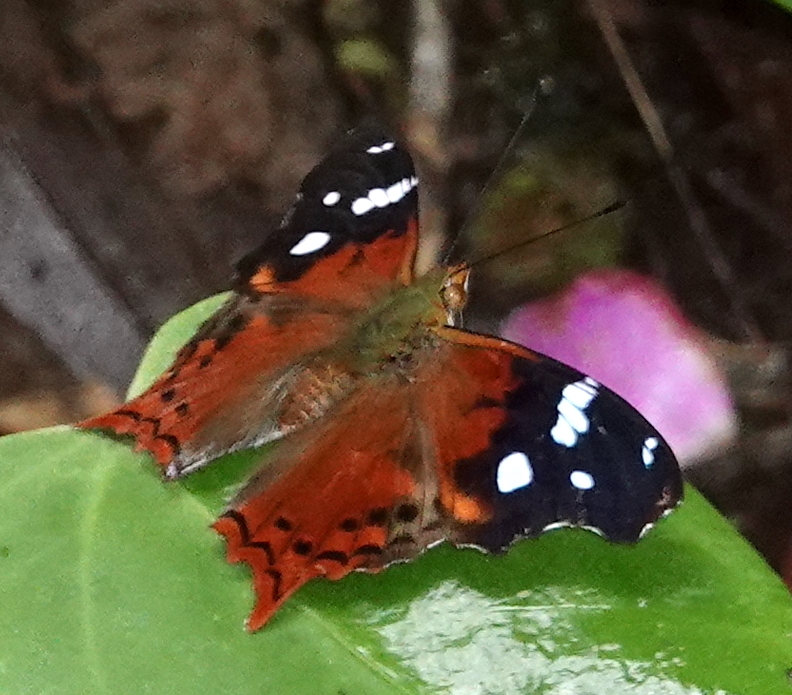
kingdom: Animalia
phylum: Arthropoda
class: Insecta
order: Lepidoptera
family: Nymphalidae
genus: Hypanartia
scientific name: Hypanartia cinderella
